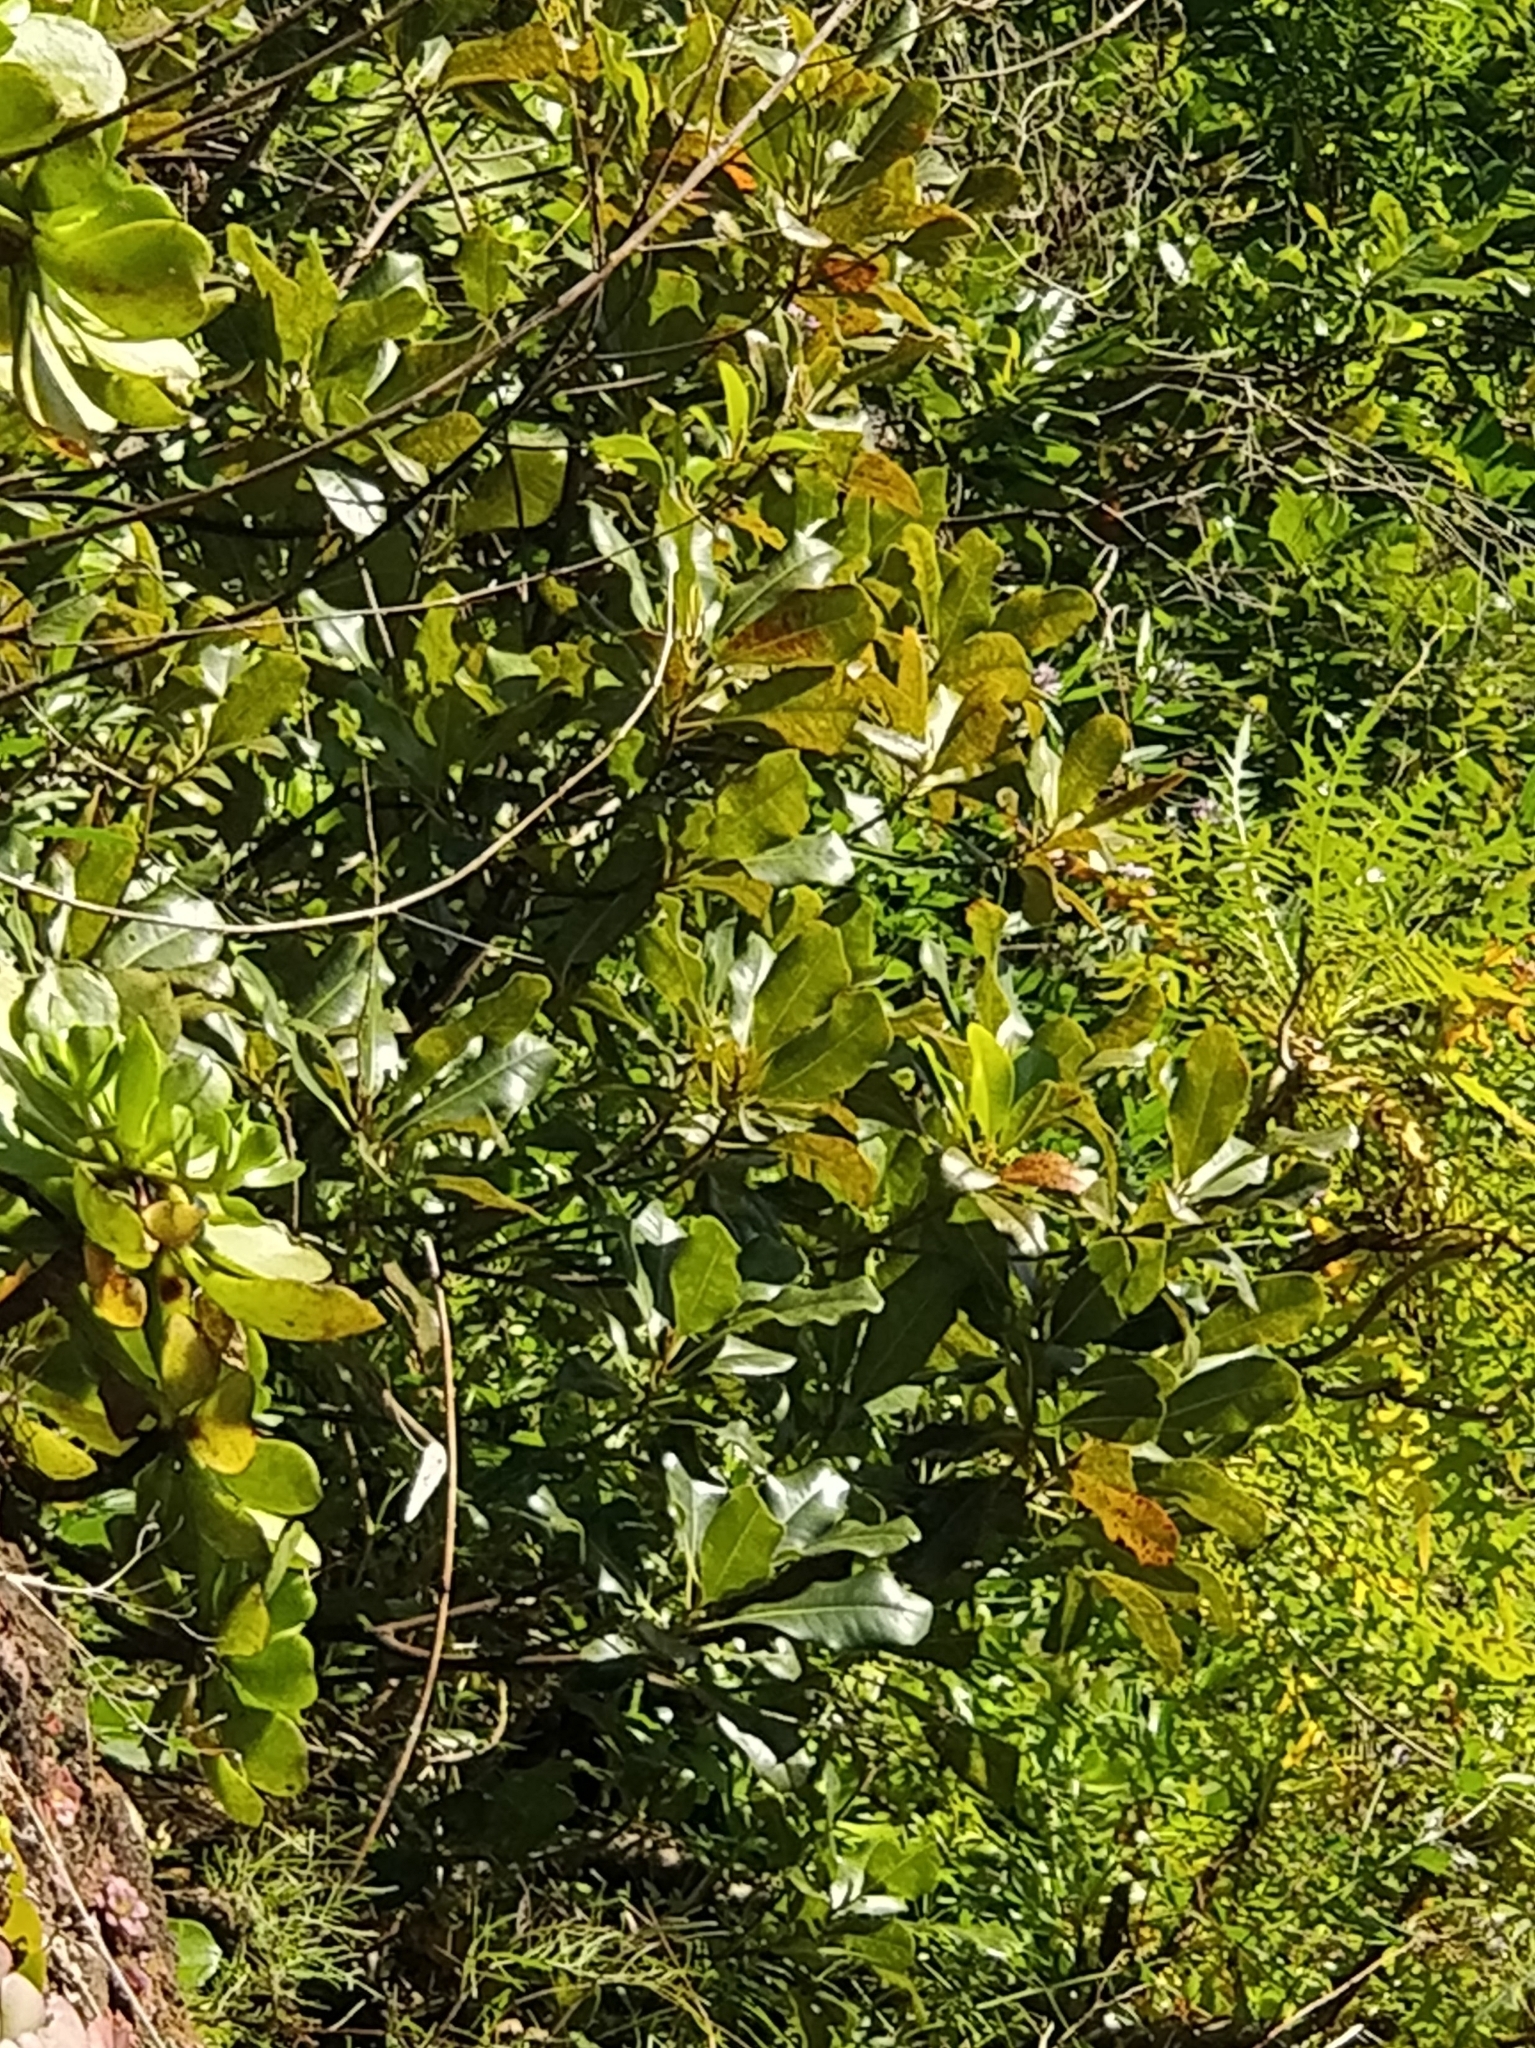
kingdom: Plantae
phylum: Tracheophyta
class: Magnoliopsida
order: Ericales
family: Sapotaceae
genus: Sideroxylon
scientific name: Sideroxylon mirmulans
